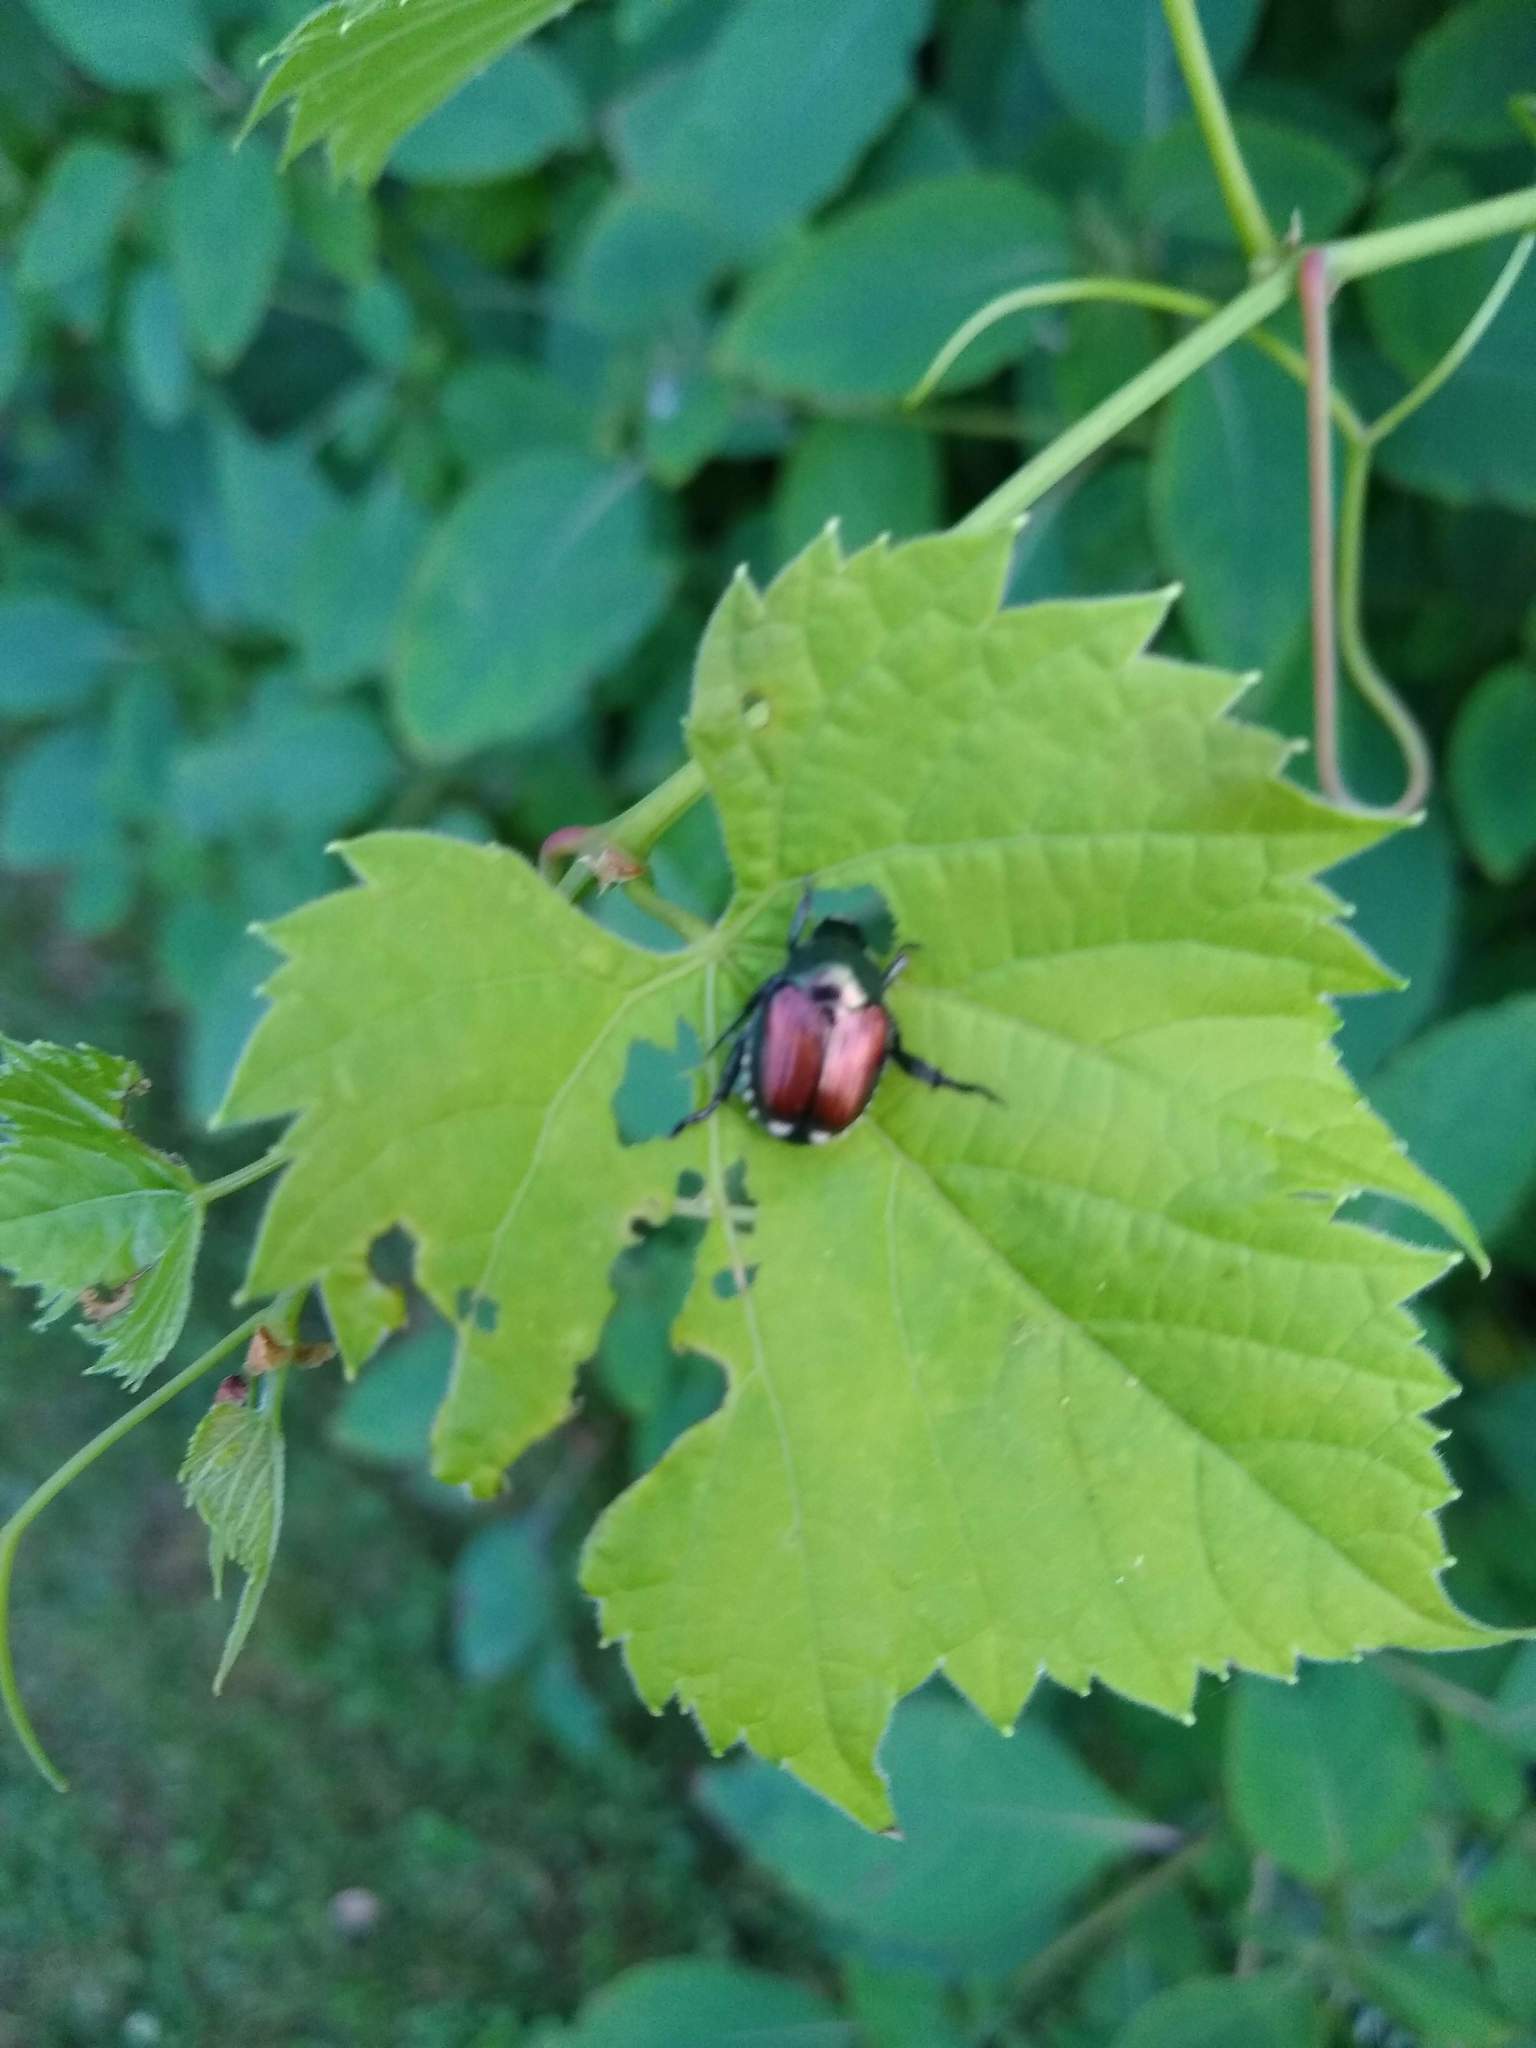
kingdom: Animalia
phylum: Arthropoda
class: Insecta
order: Coleoptera
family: Scarabaeidae
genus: Popillia
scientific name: Popillia japonica
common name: Japanese beetle
